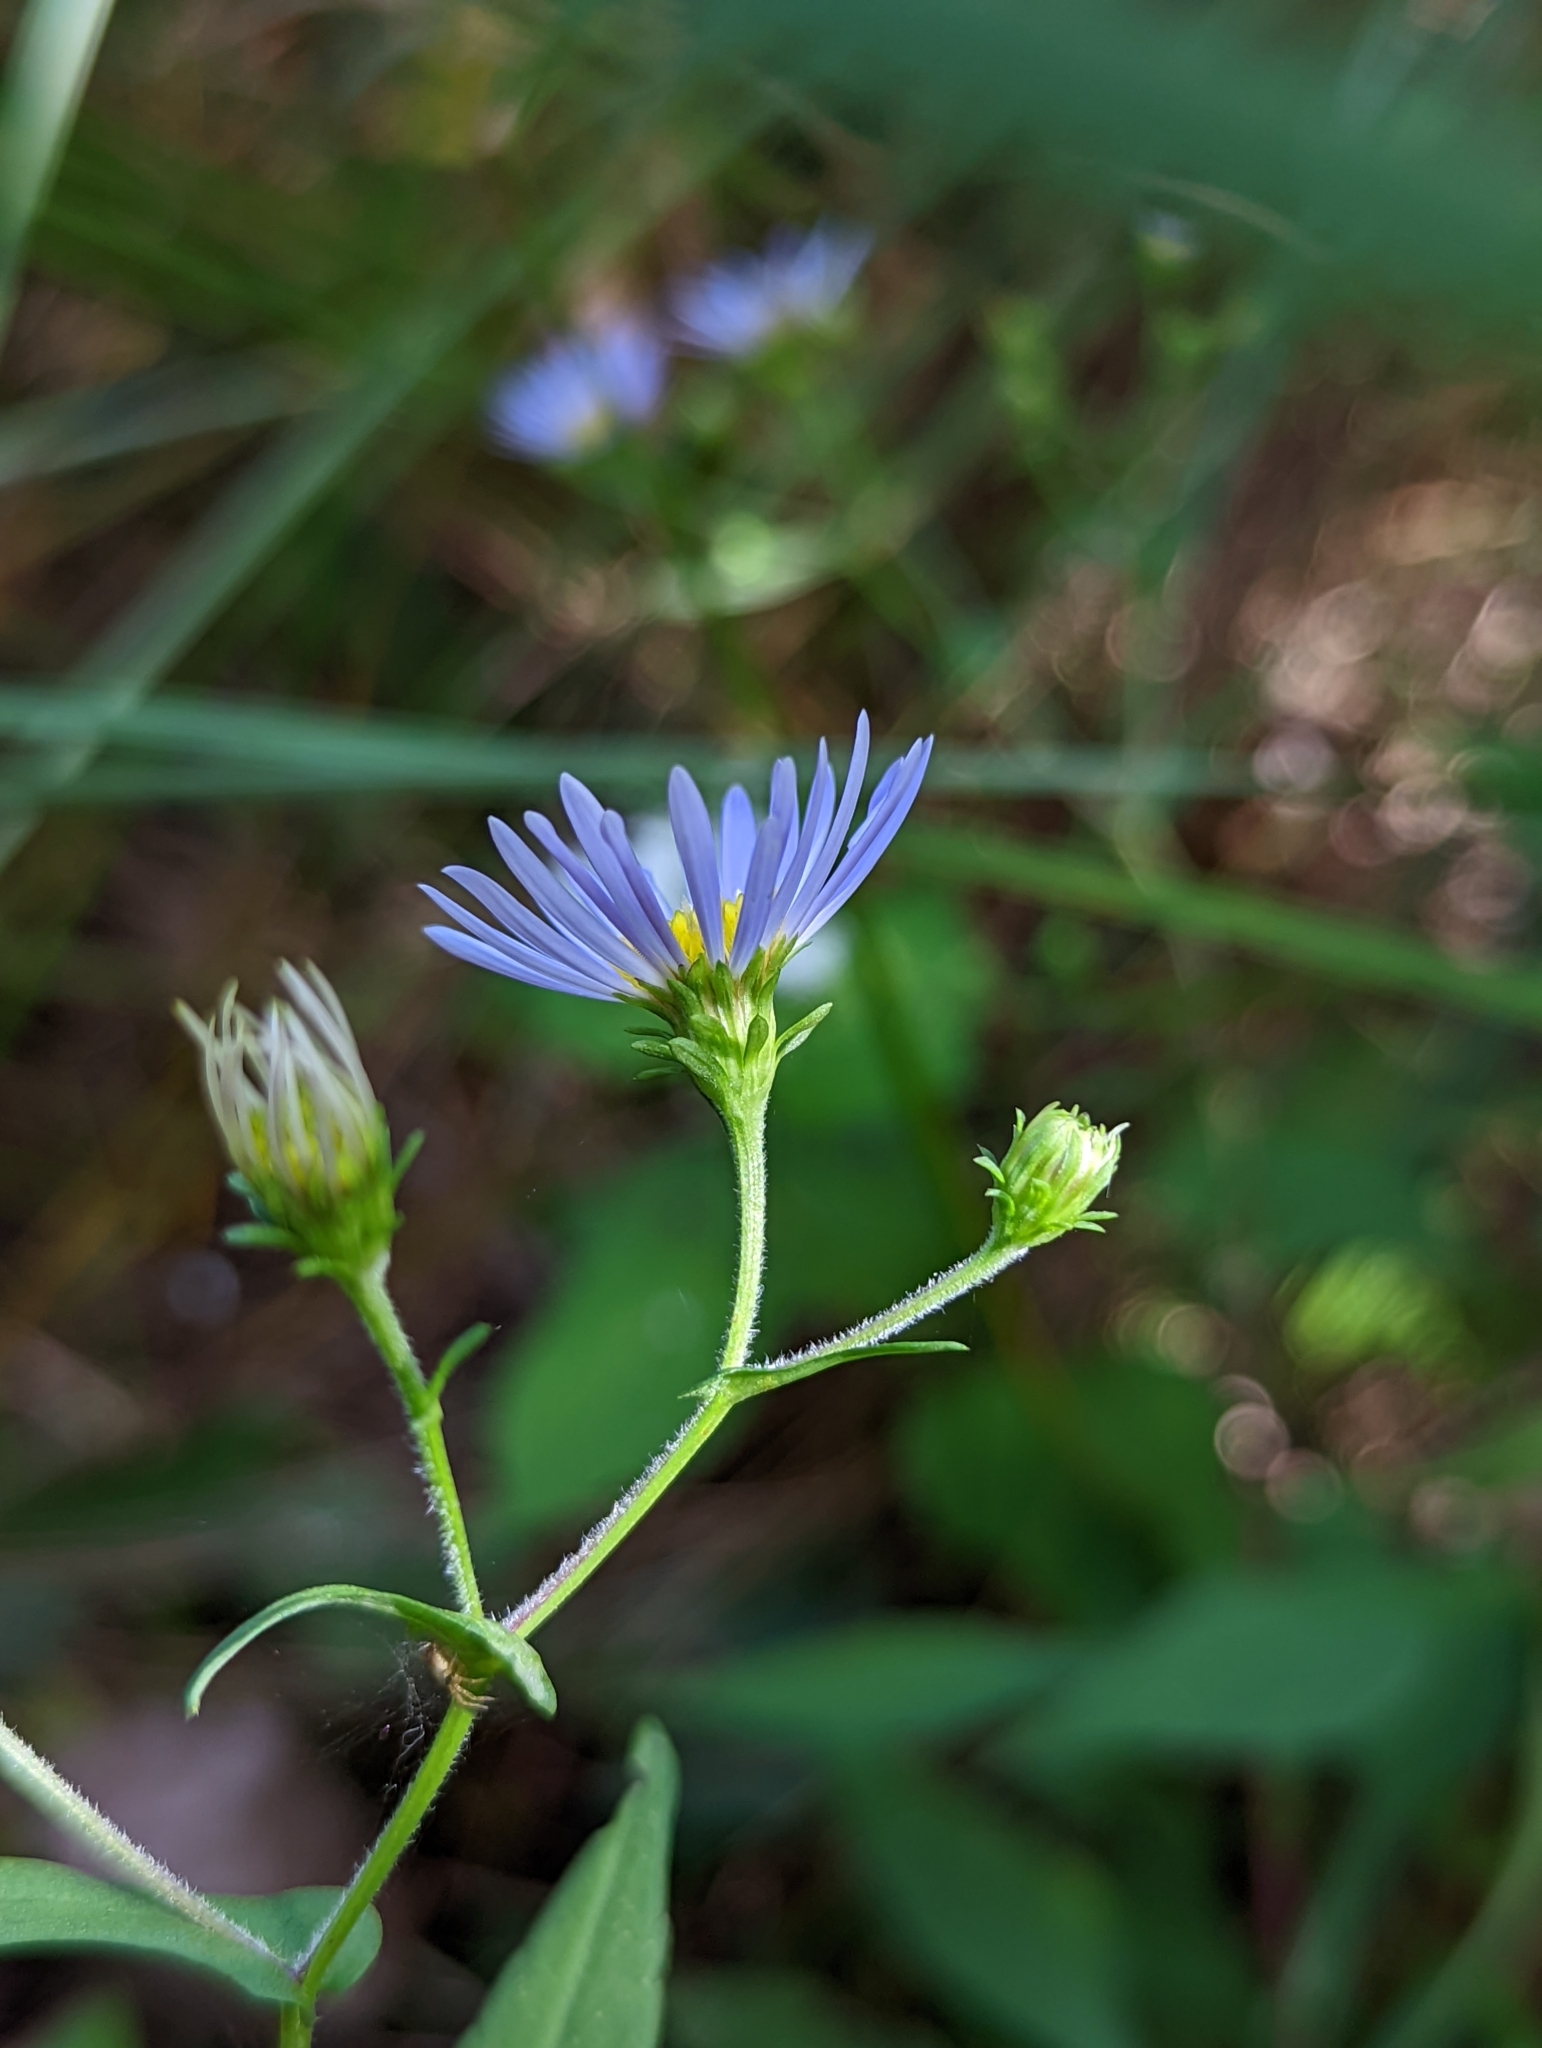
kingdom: Plantae
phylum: Tracheophyta
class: Magnoliopsida
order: Asterales
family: Asteraceae
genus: Symphyotrichum
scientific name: Symphyotrichum prenanthoides
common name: Crooked-stem aster
